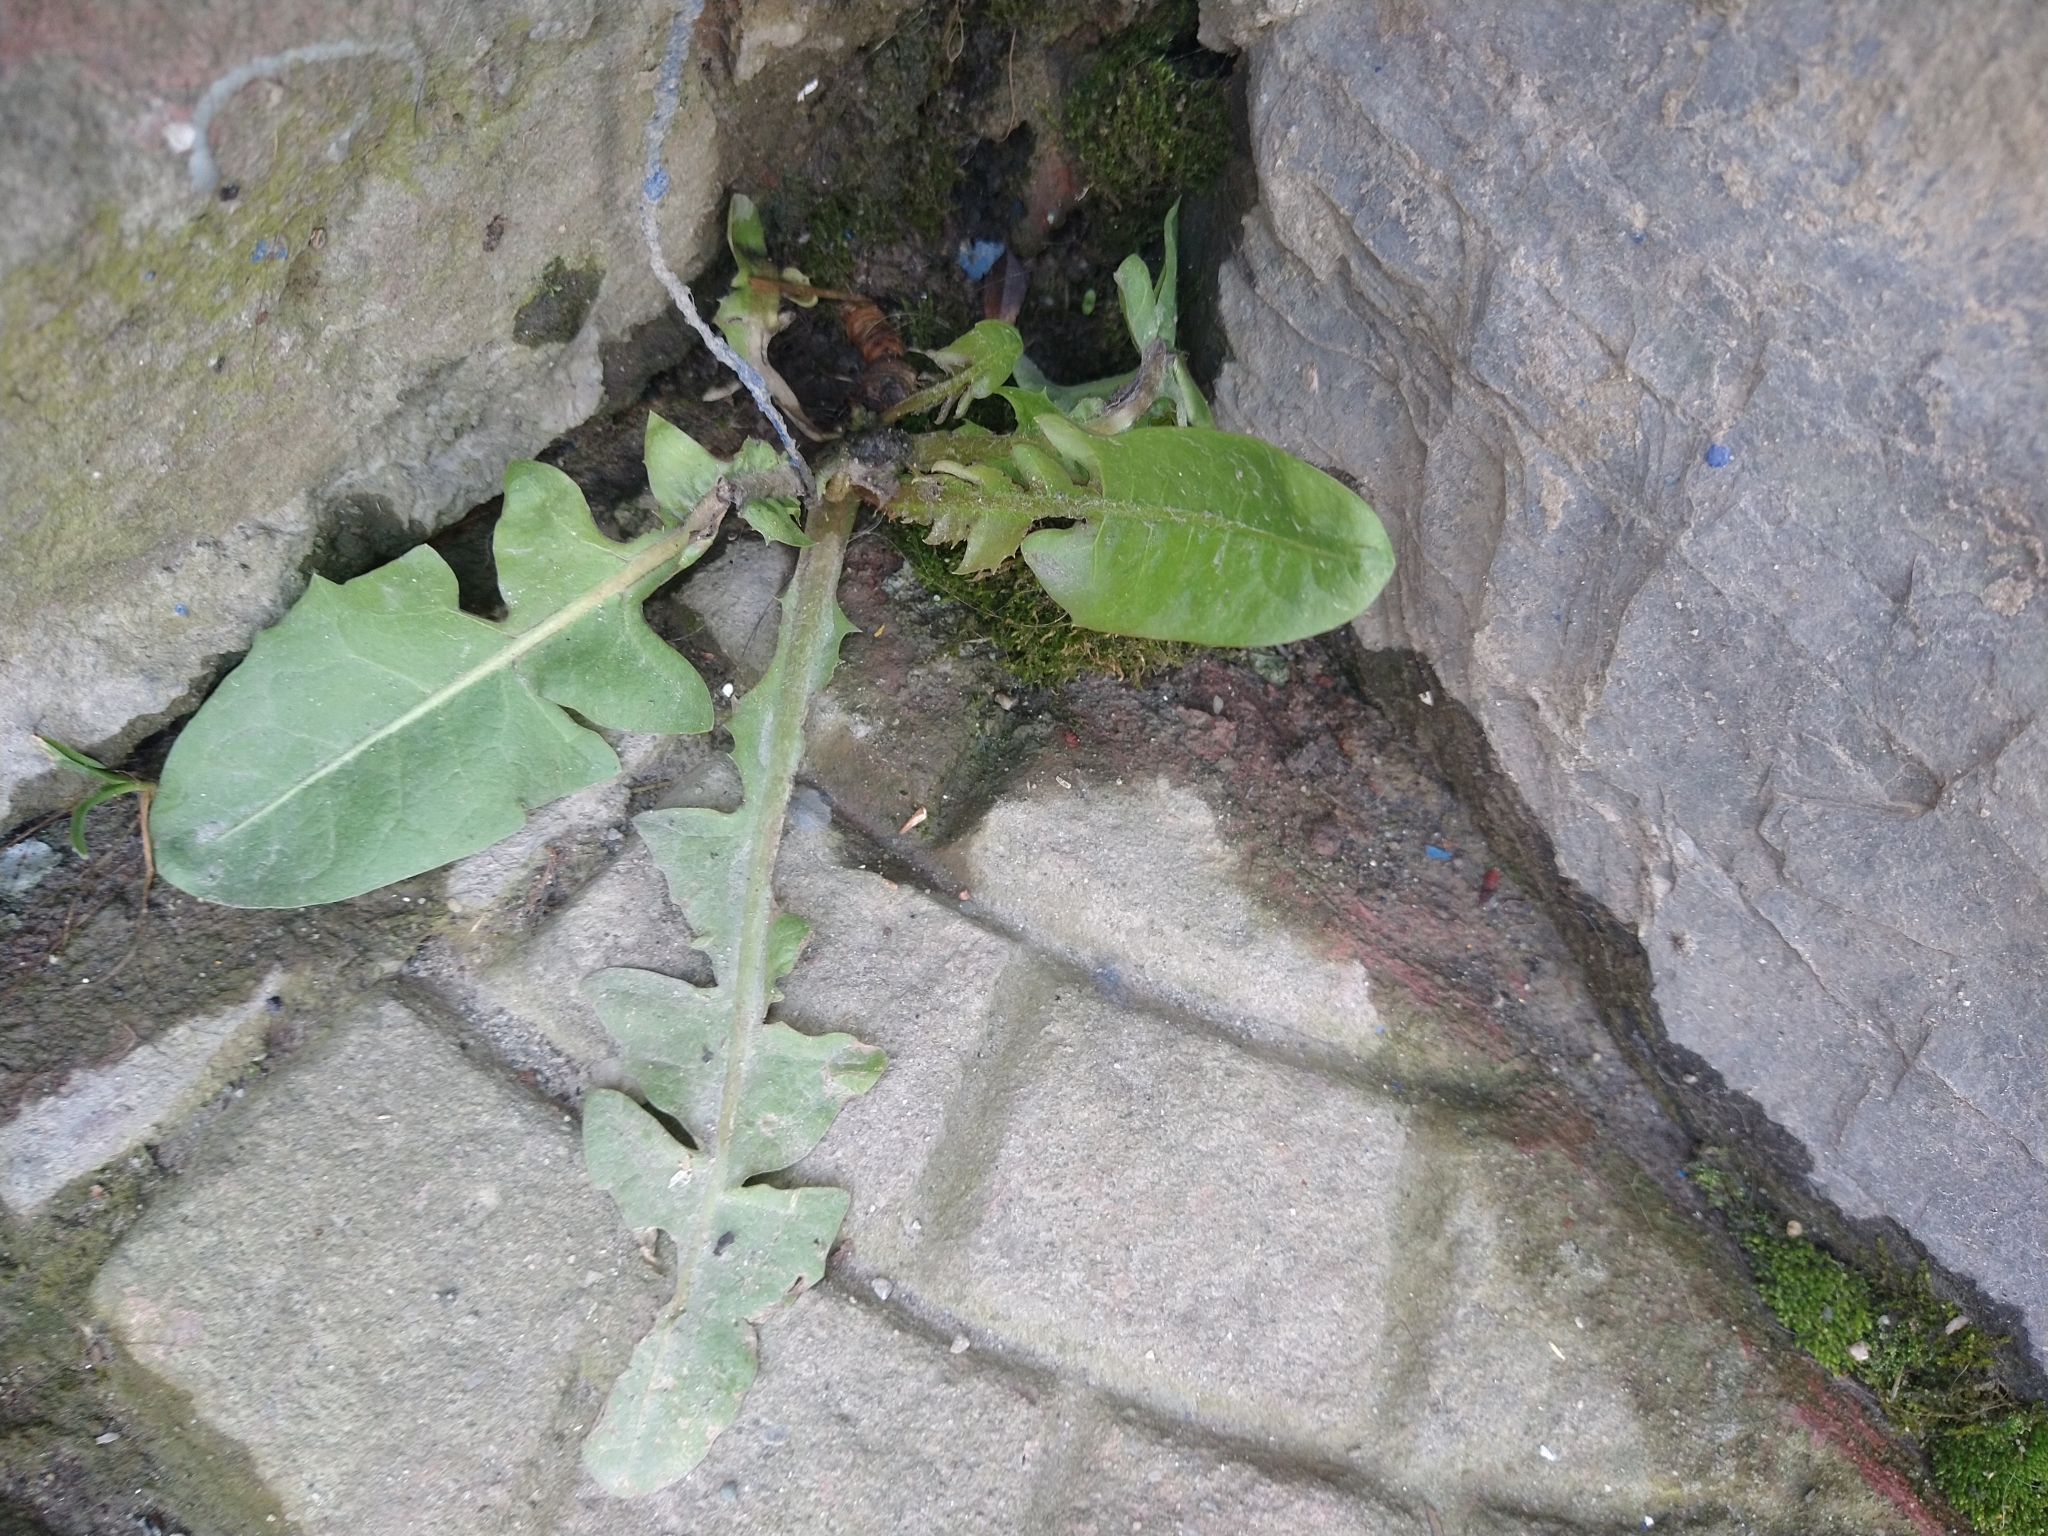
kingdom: Plantae
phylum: Tracheophyta
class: Magnoliopsida
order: Asterales
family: Asteraceae
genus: Taraxacum
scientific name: Taraxacum officinale
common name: Common dandelion
